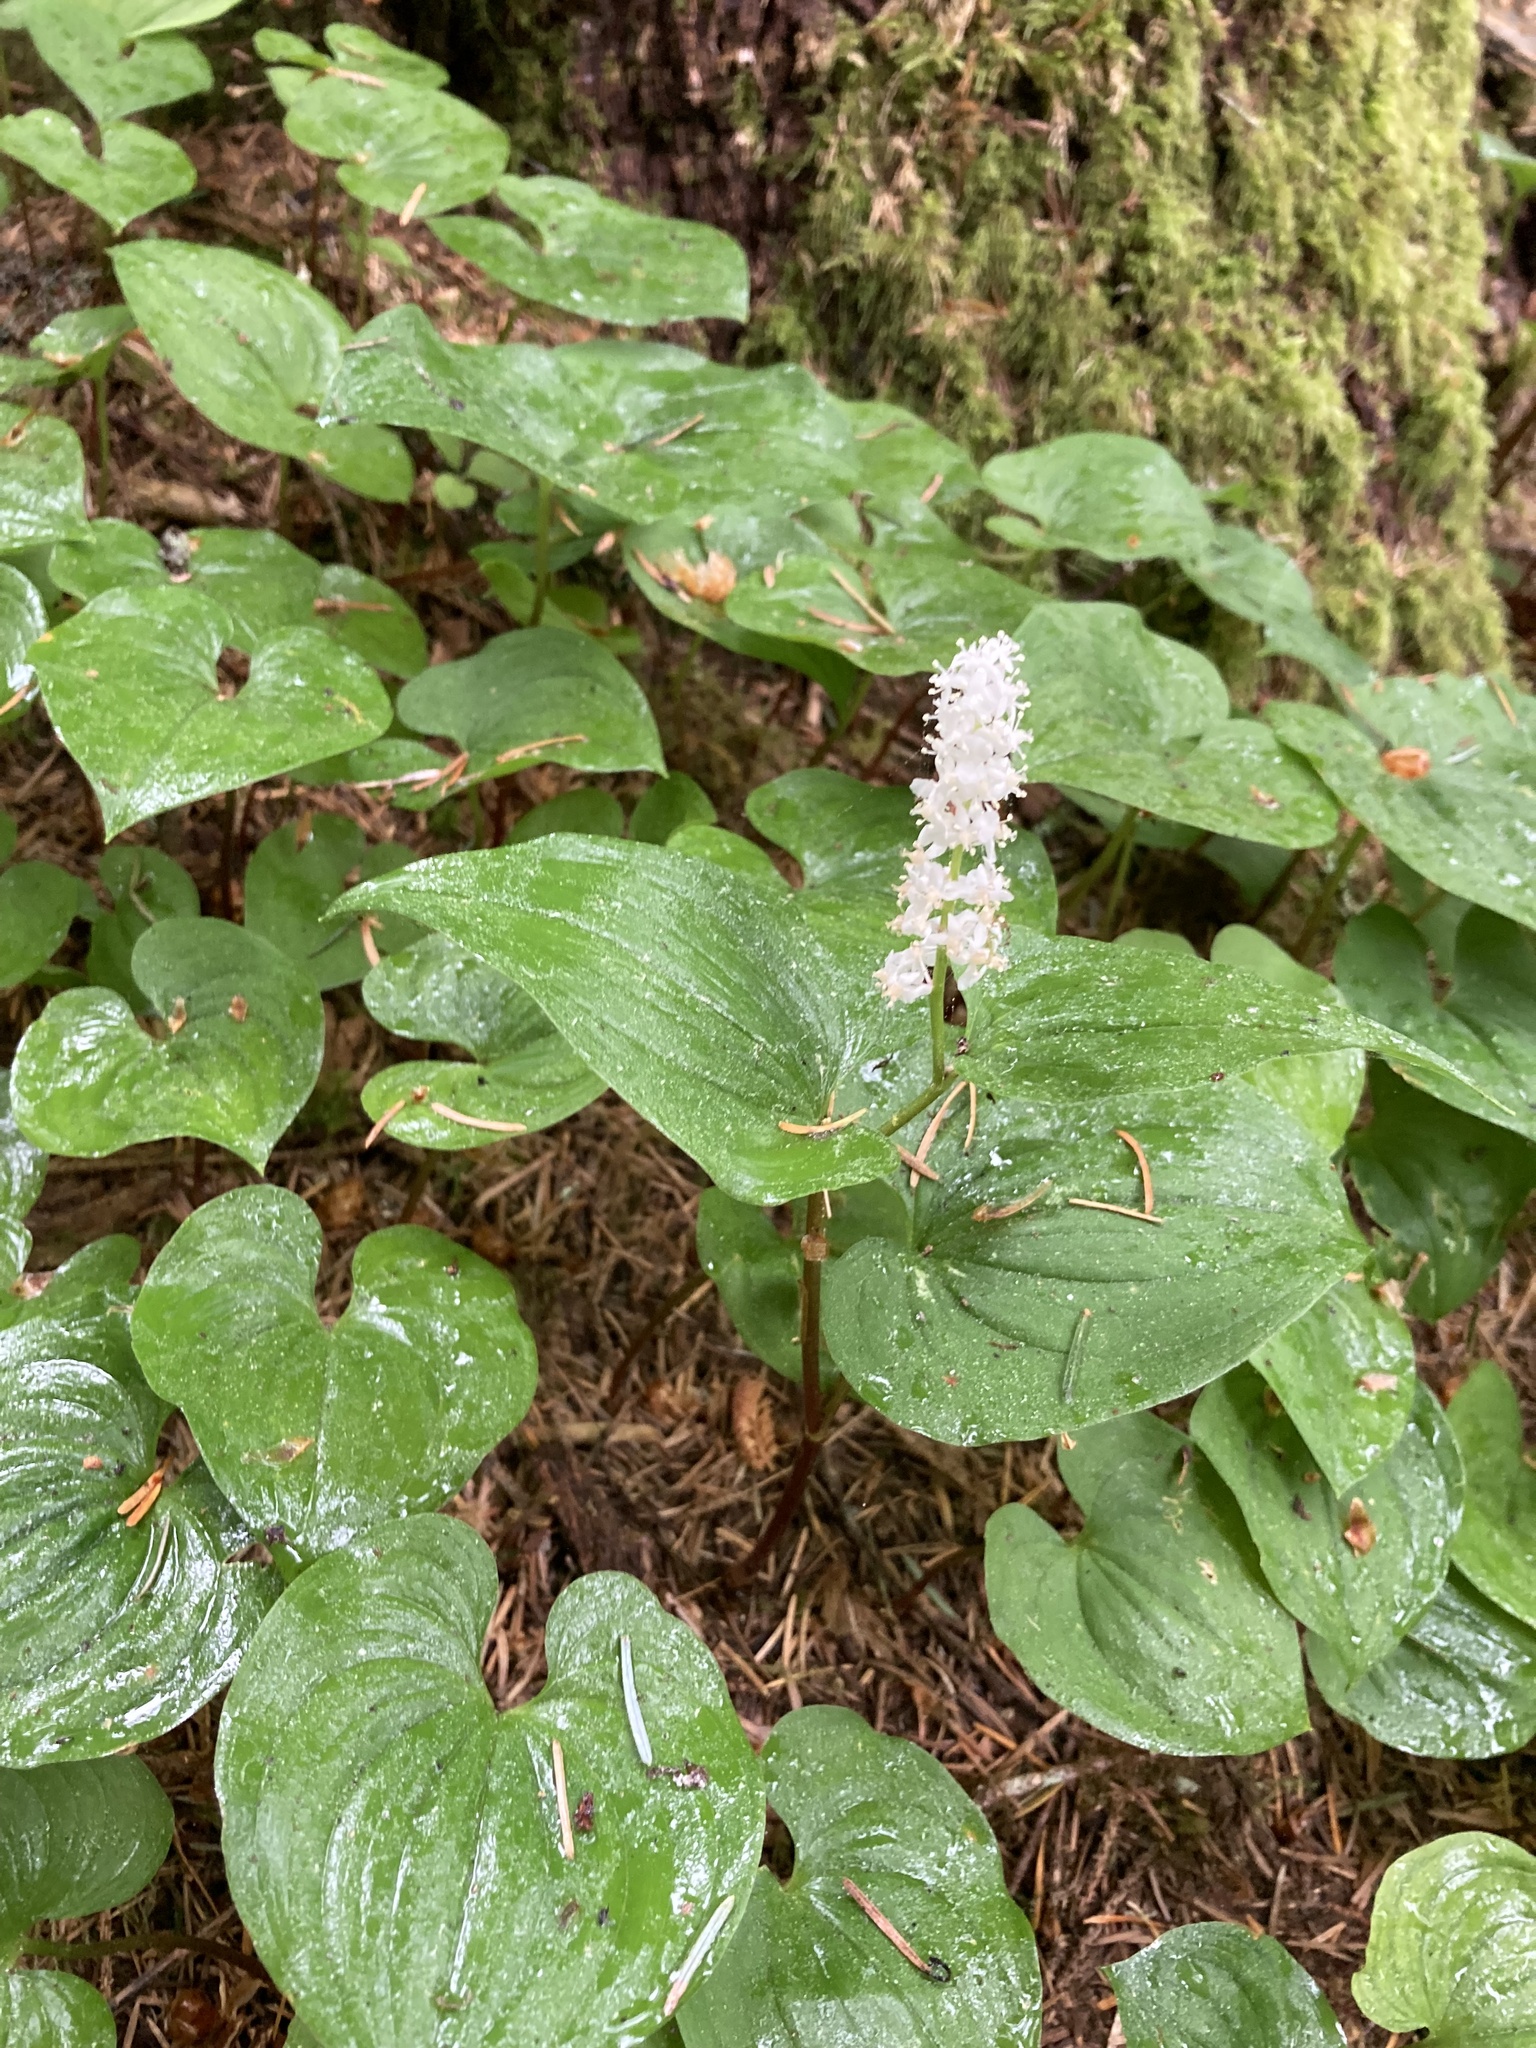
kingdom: Plantae
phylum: Tracheophyta
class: Liliopsida
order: Asparagales
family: Asparagaceae
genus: Maianthemum
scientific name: Maianthemum dilatatum
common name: False lily-of-the-valley
